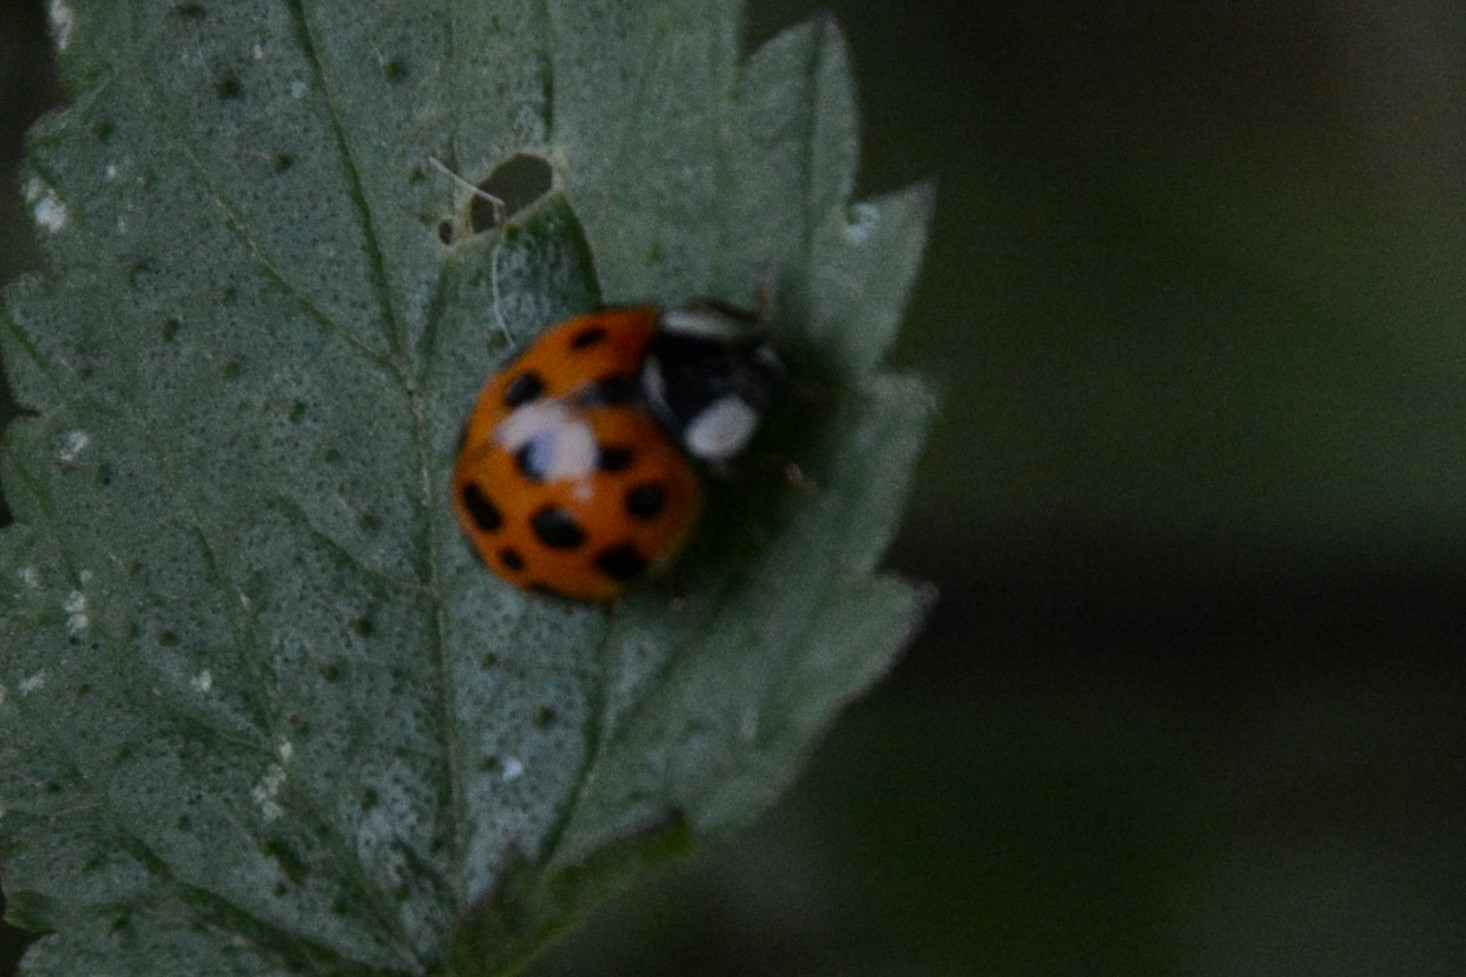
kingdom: Animalia
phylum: Arthropoda
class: Insecta
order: Coleoptera
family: Coccinellidae
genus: Harmonia
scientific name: Harmonia axyridis
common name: Harlequin ladybird
